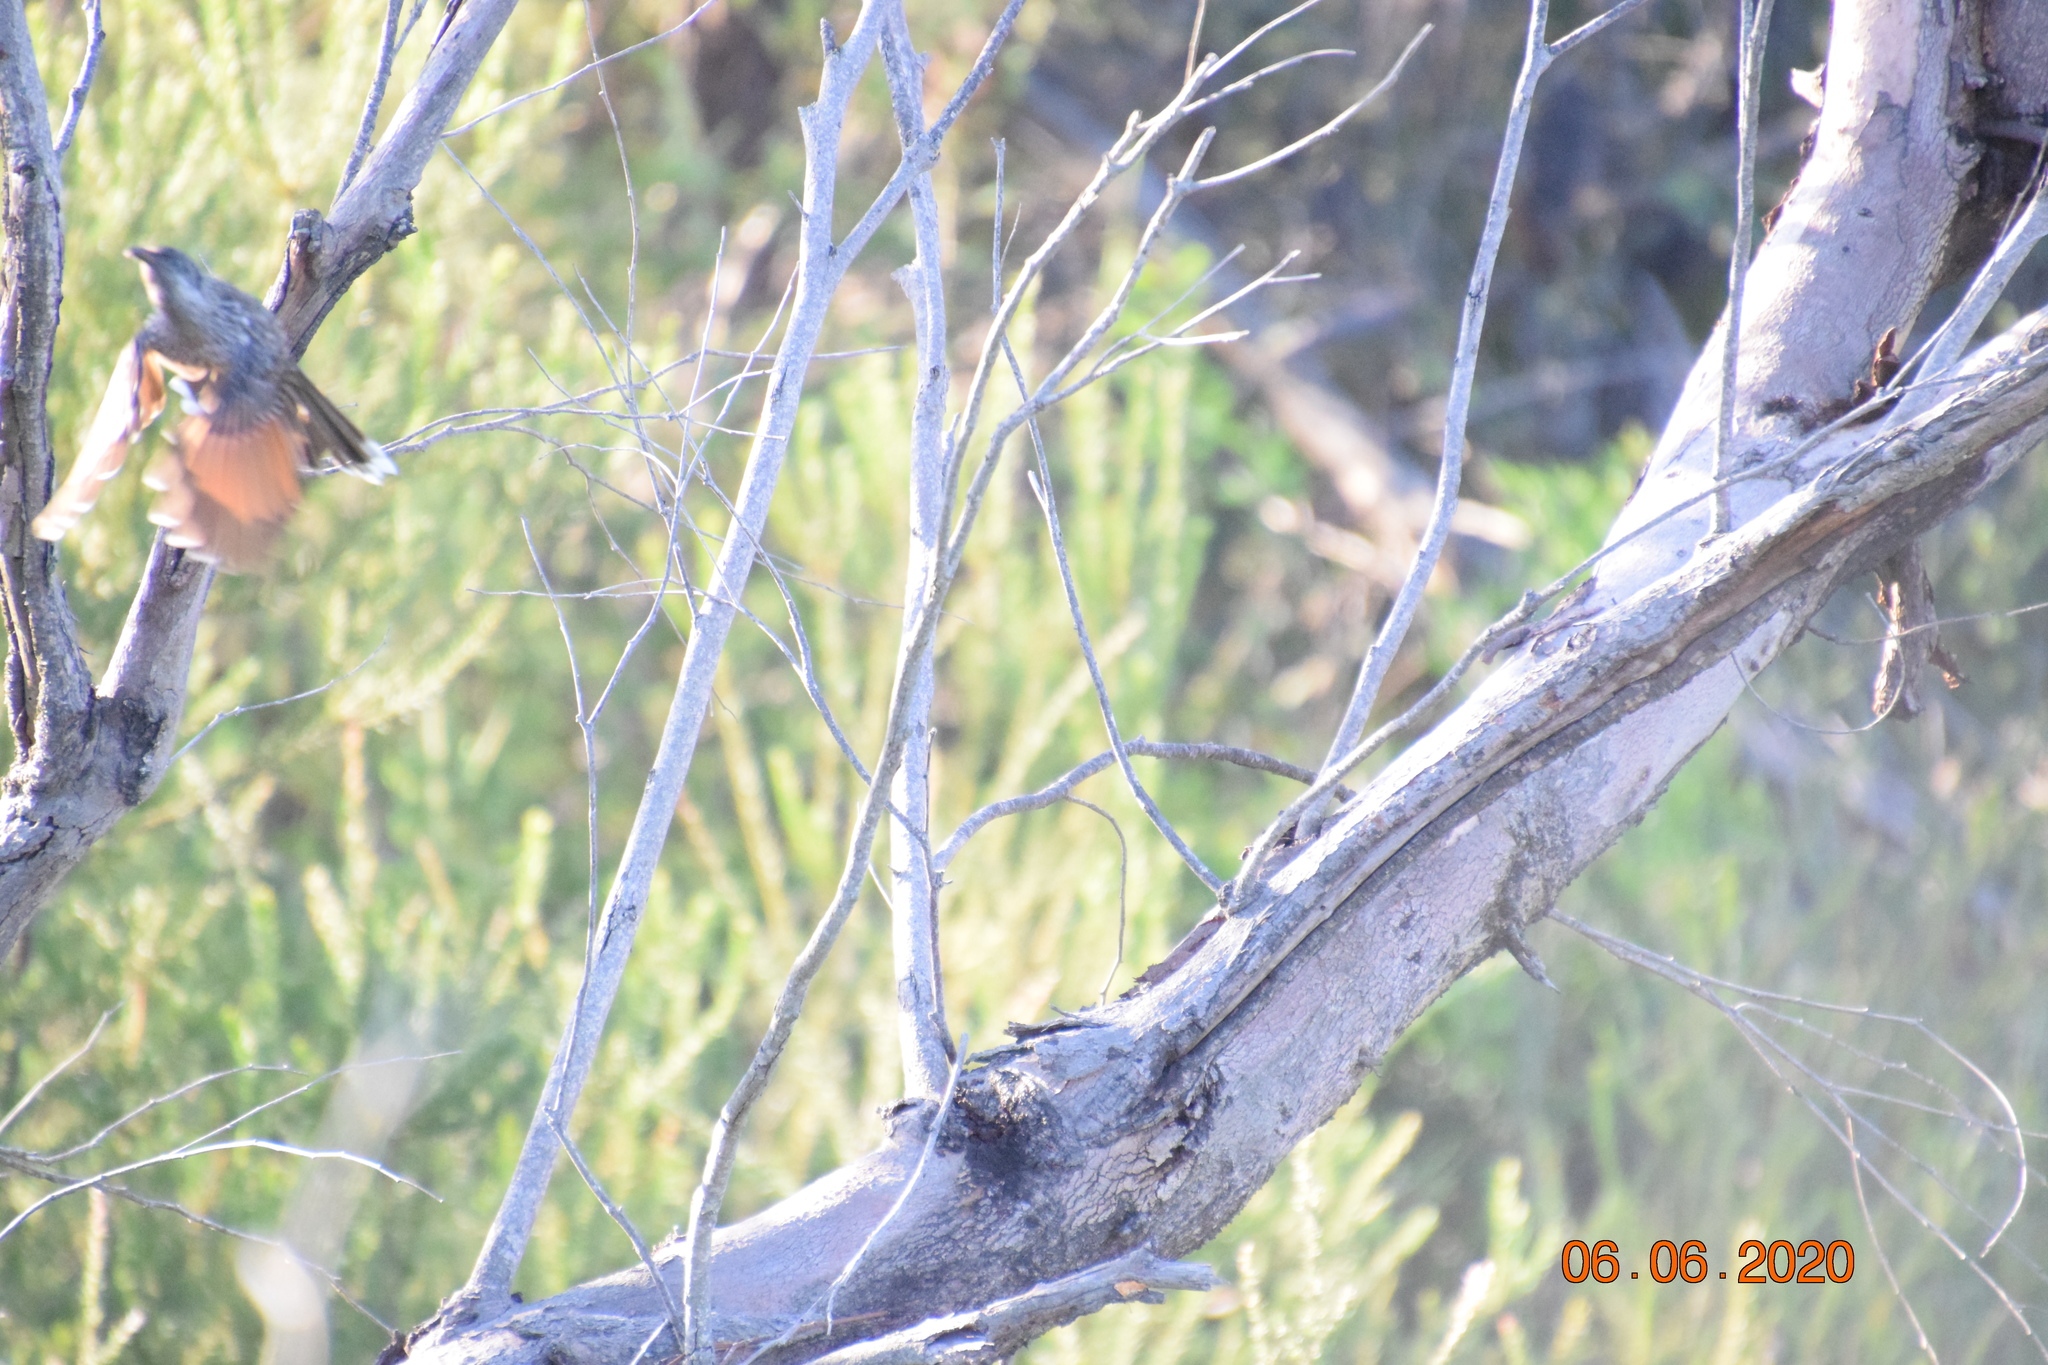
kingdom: Animalia
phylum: Chordata
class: Aves
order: Passeriformes
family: Meliphagidae
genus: Anthochaera
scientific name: Anthochaera chrysoptera
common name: Little wattlebird
